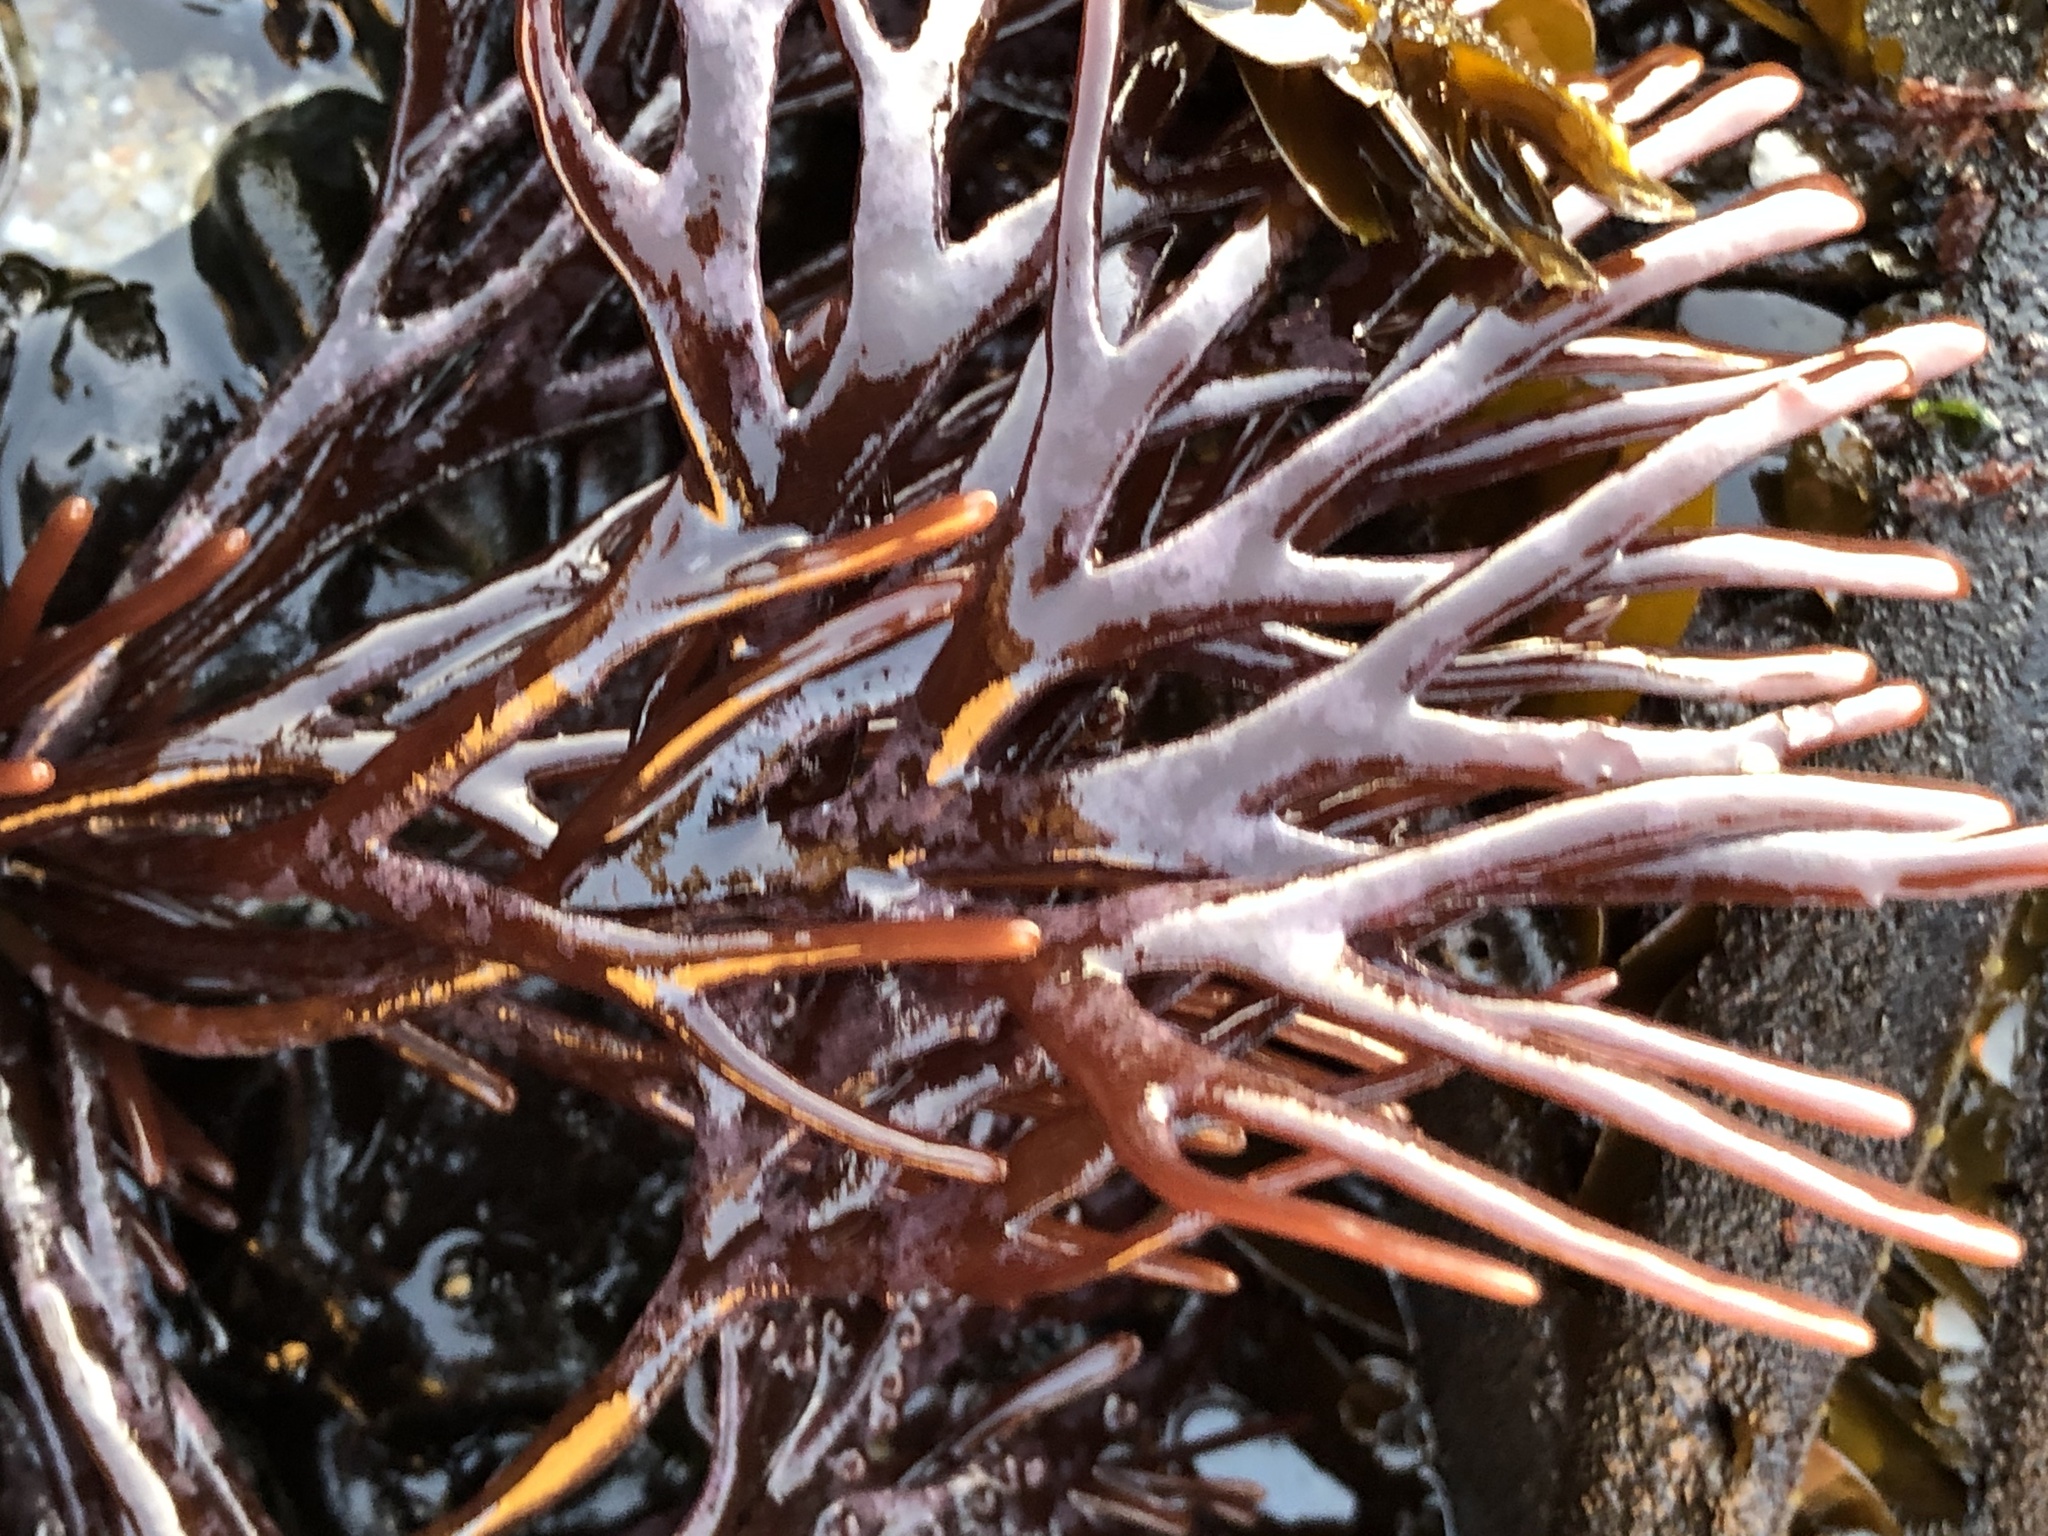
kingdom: Plantae
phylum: Rhodophyta
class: Florideophyceae
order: Gigartinales
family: Phyllophoraceae
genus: Ahnfeltiopsis
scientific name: Ahnfeltiopsis linearis
